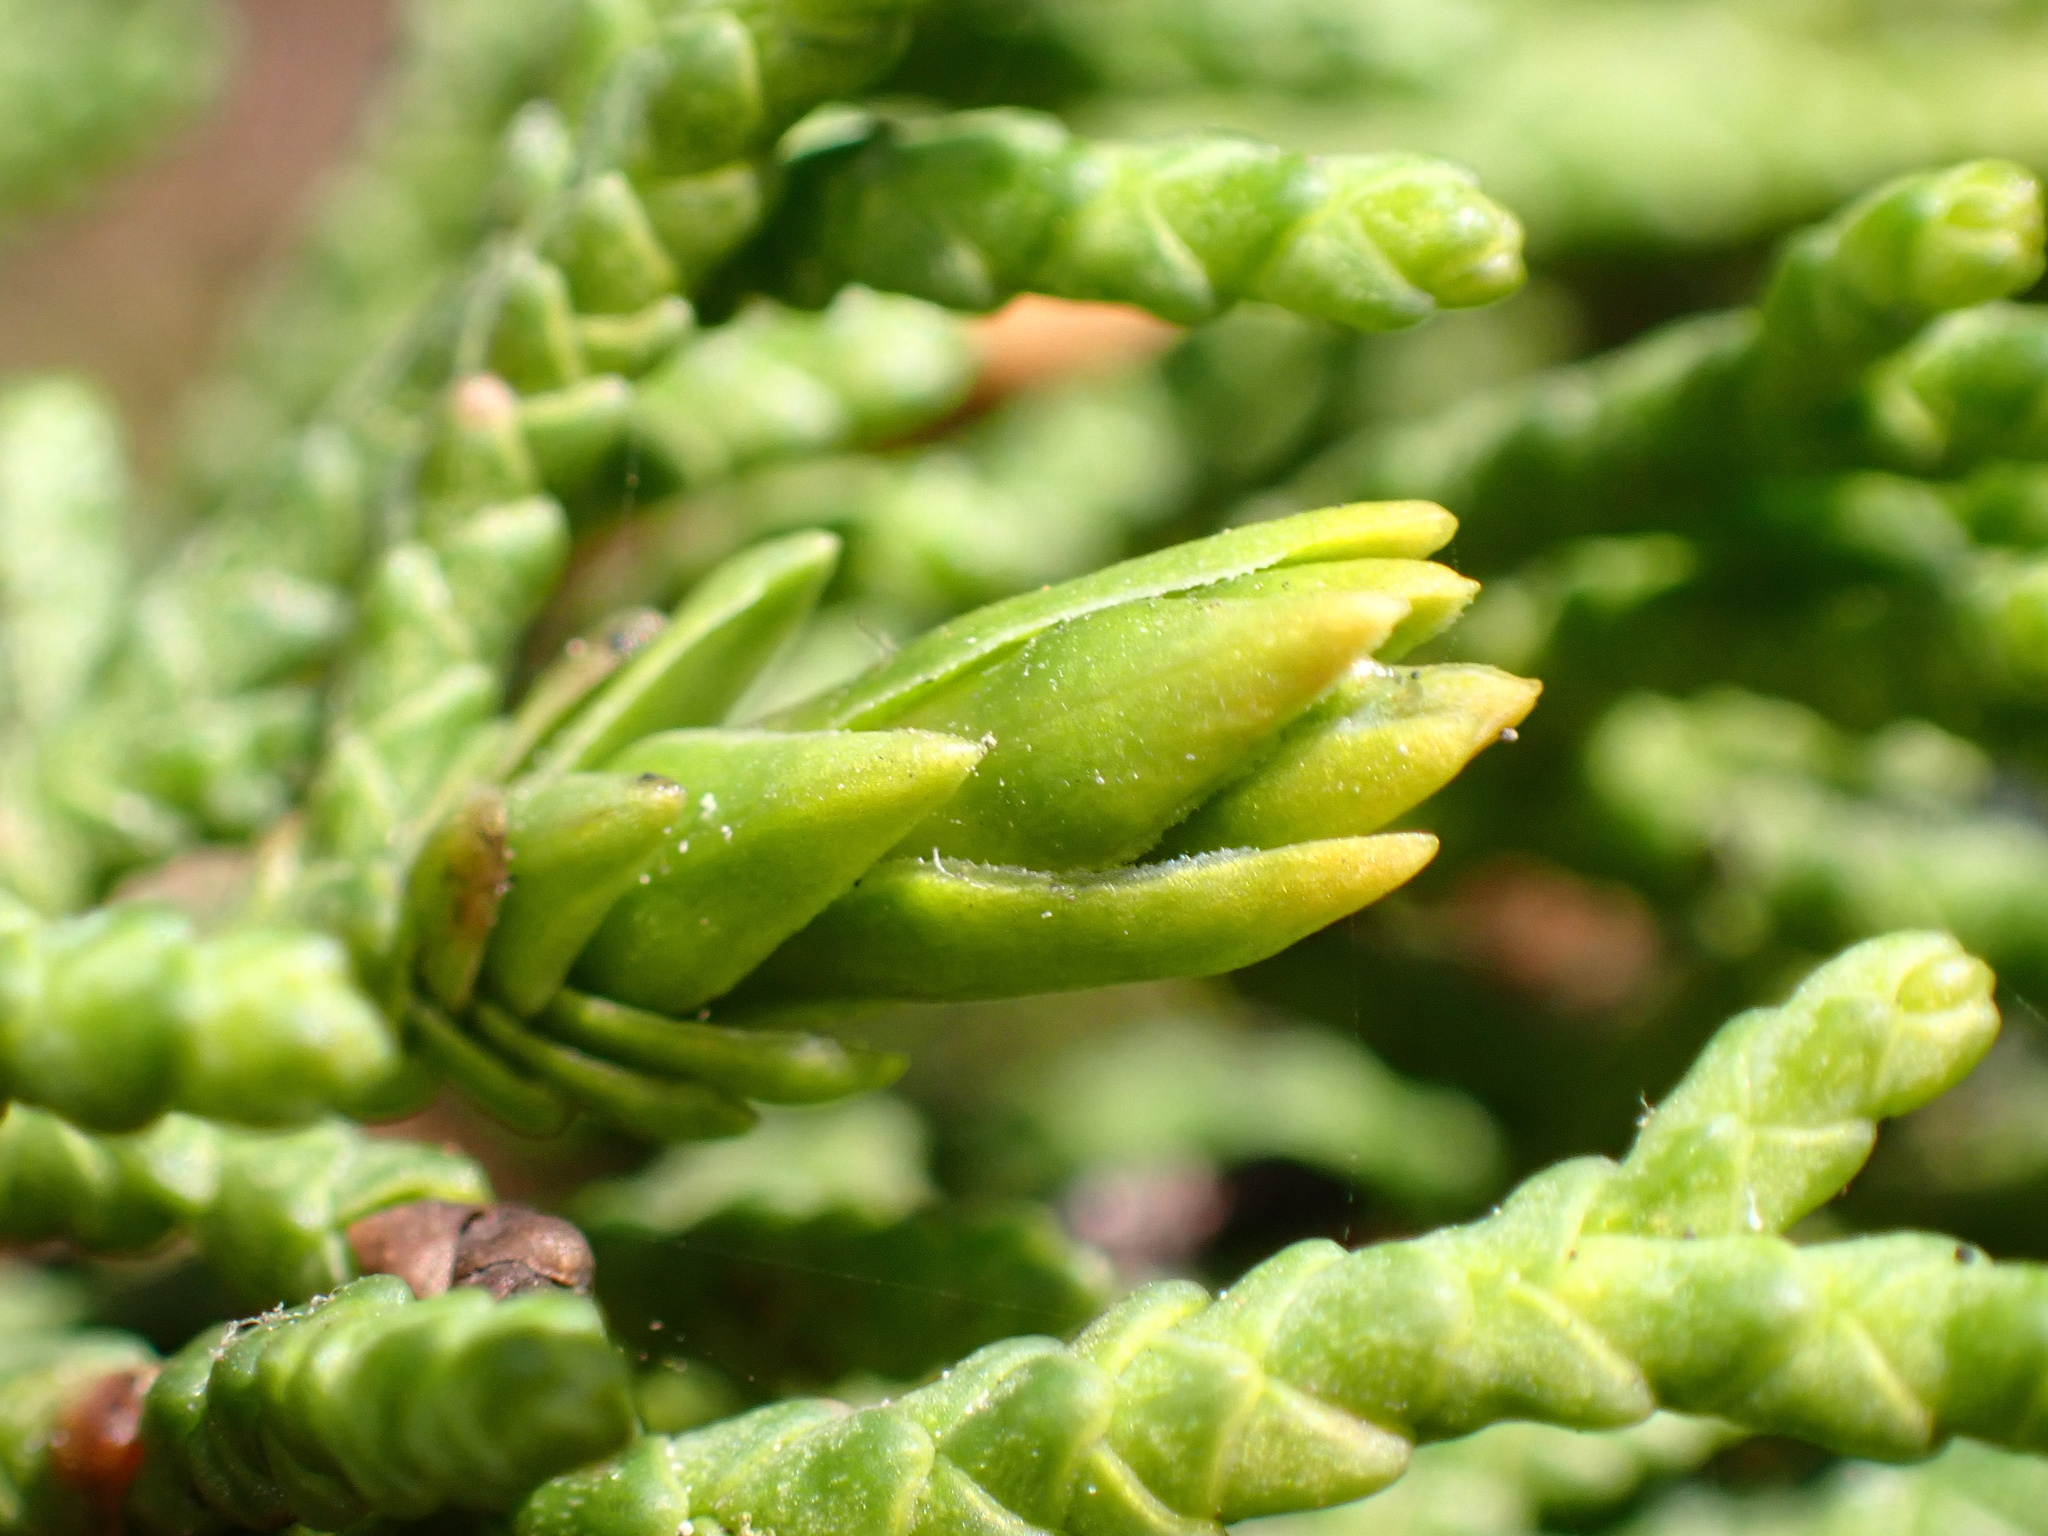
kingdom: Animalia
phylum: Arthropoda
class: Insecta
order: Diptera
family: Cecidomyiidae
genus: Oligotrophus
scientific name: Oligotrophus cupressi
